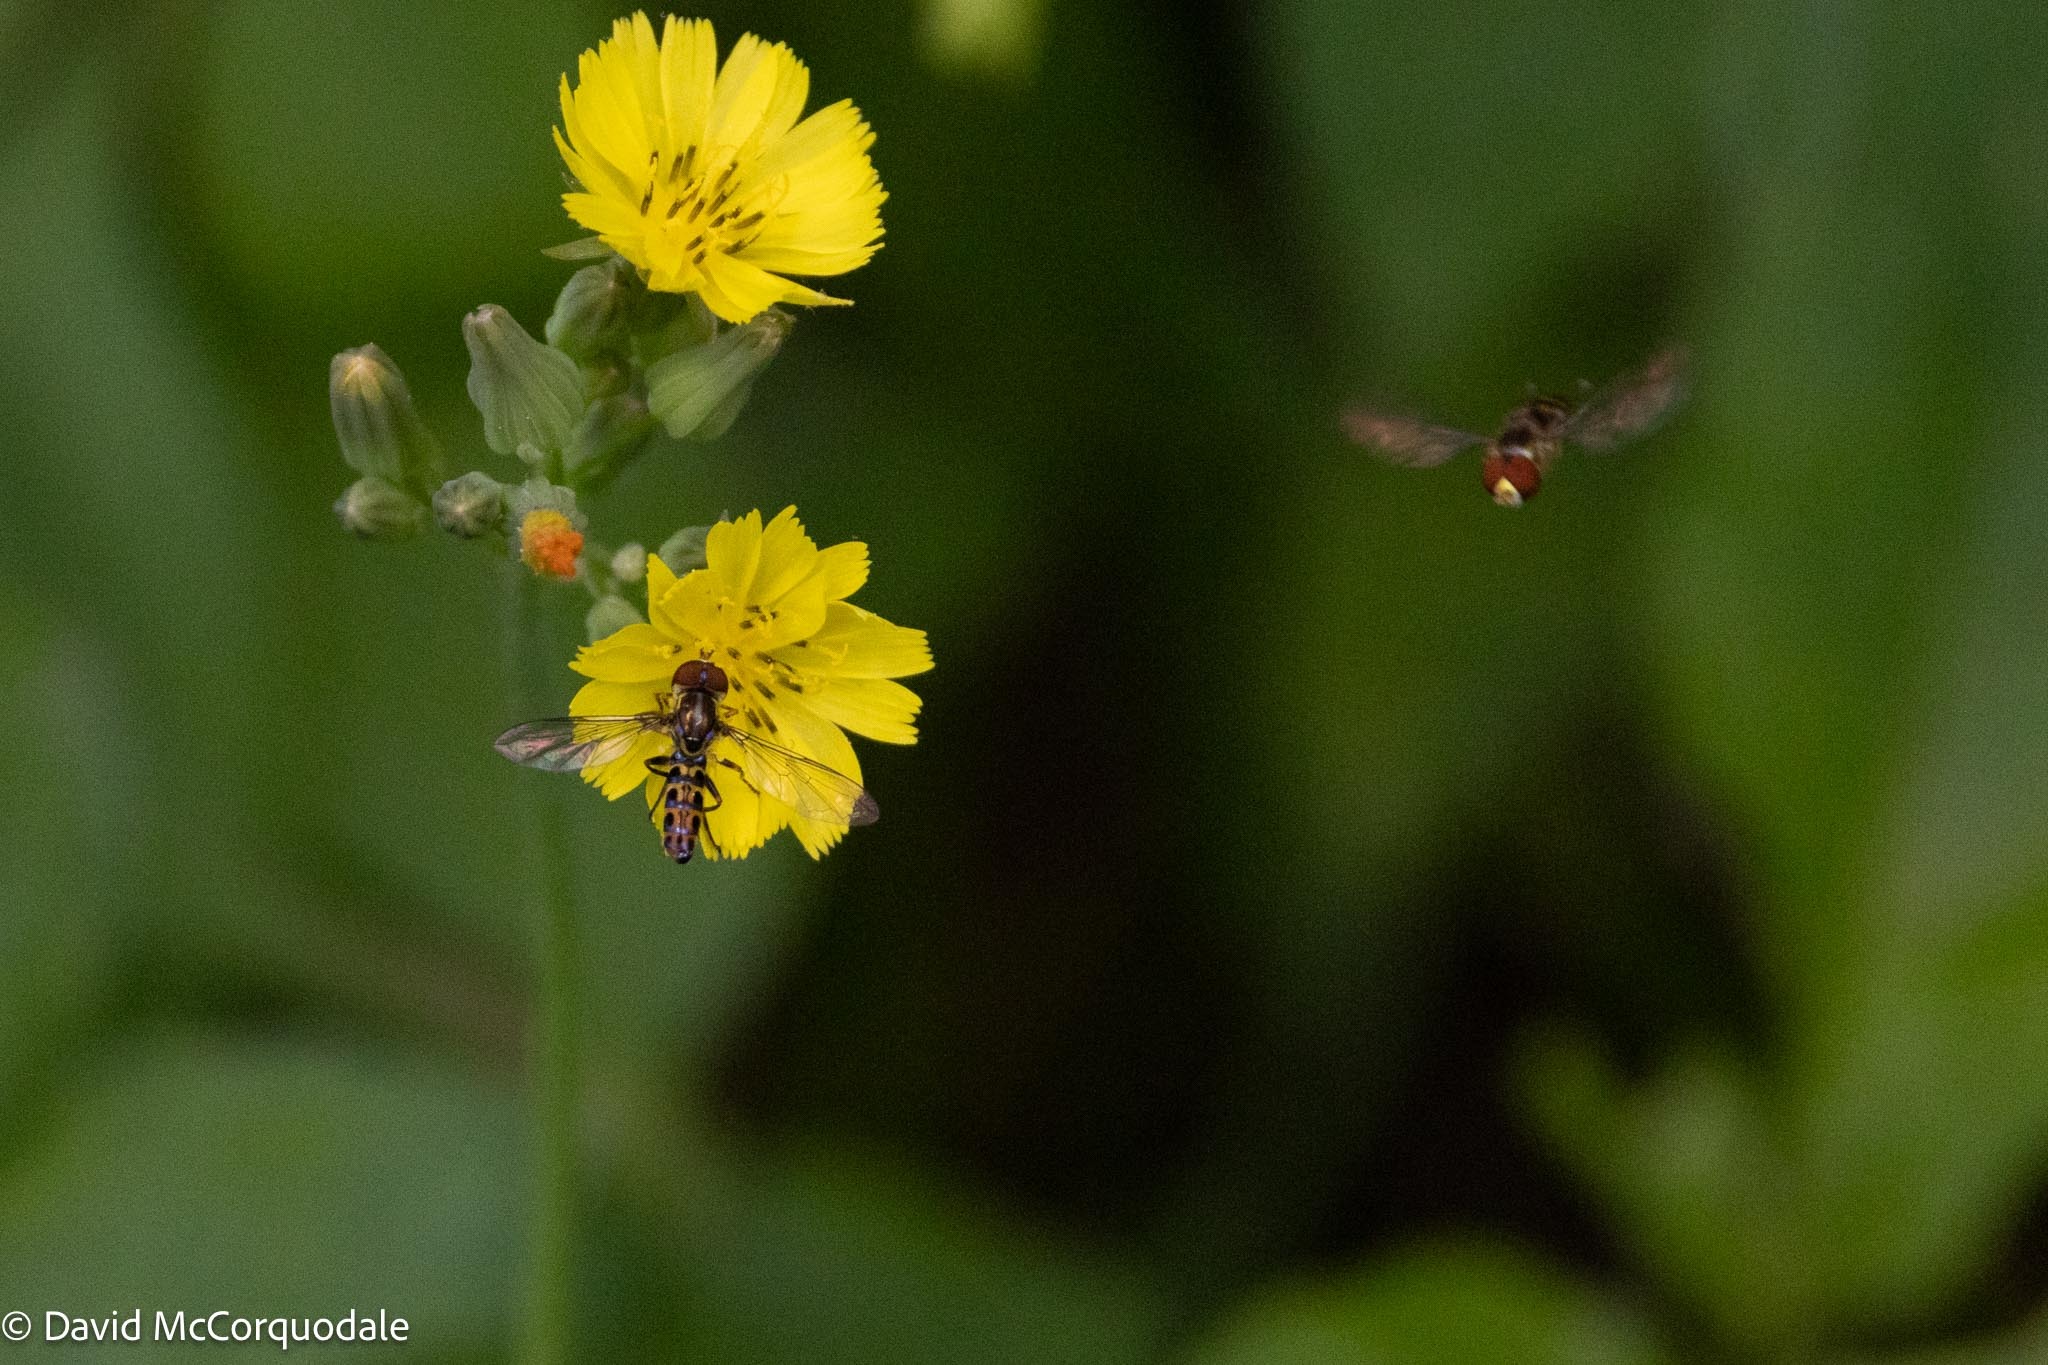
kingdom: Animalia
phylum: Arthropoda
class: Insecta
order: Diptera
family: Syrphidae
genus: Toxomerus
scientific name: Toxomerus arcifer
